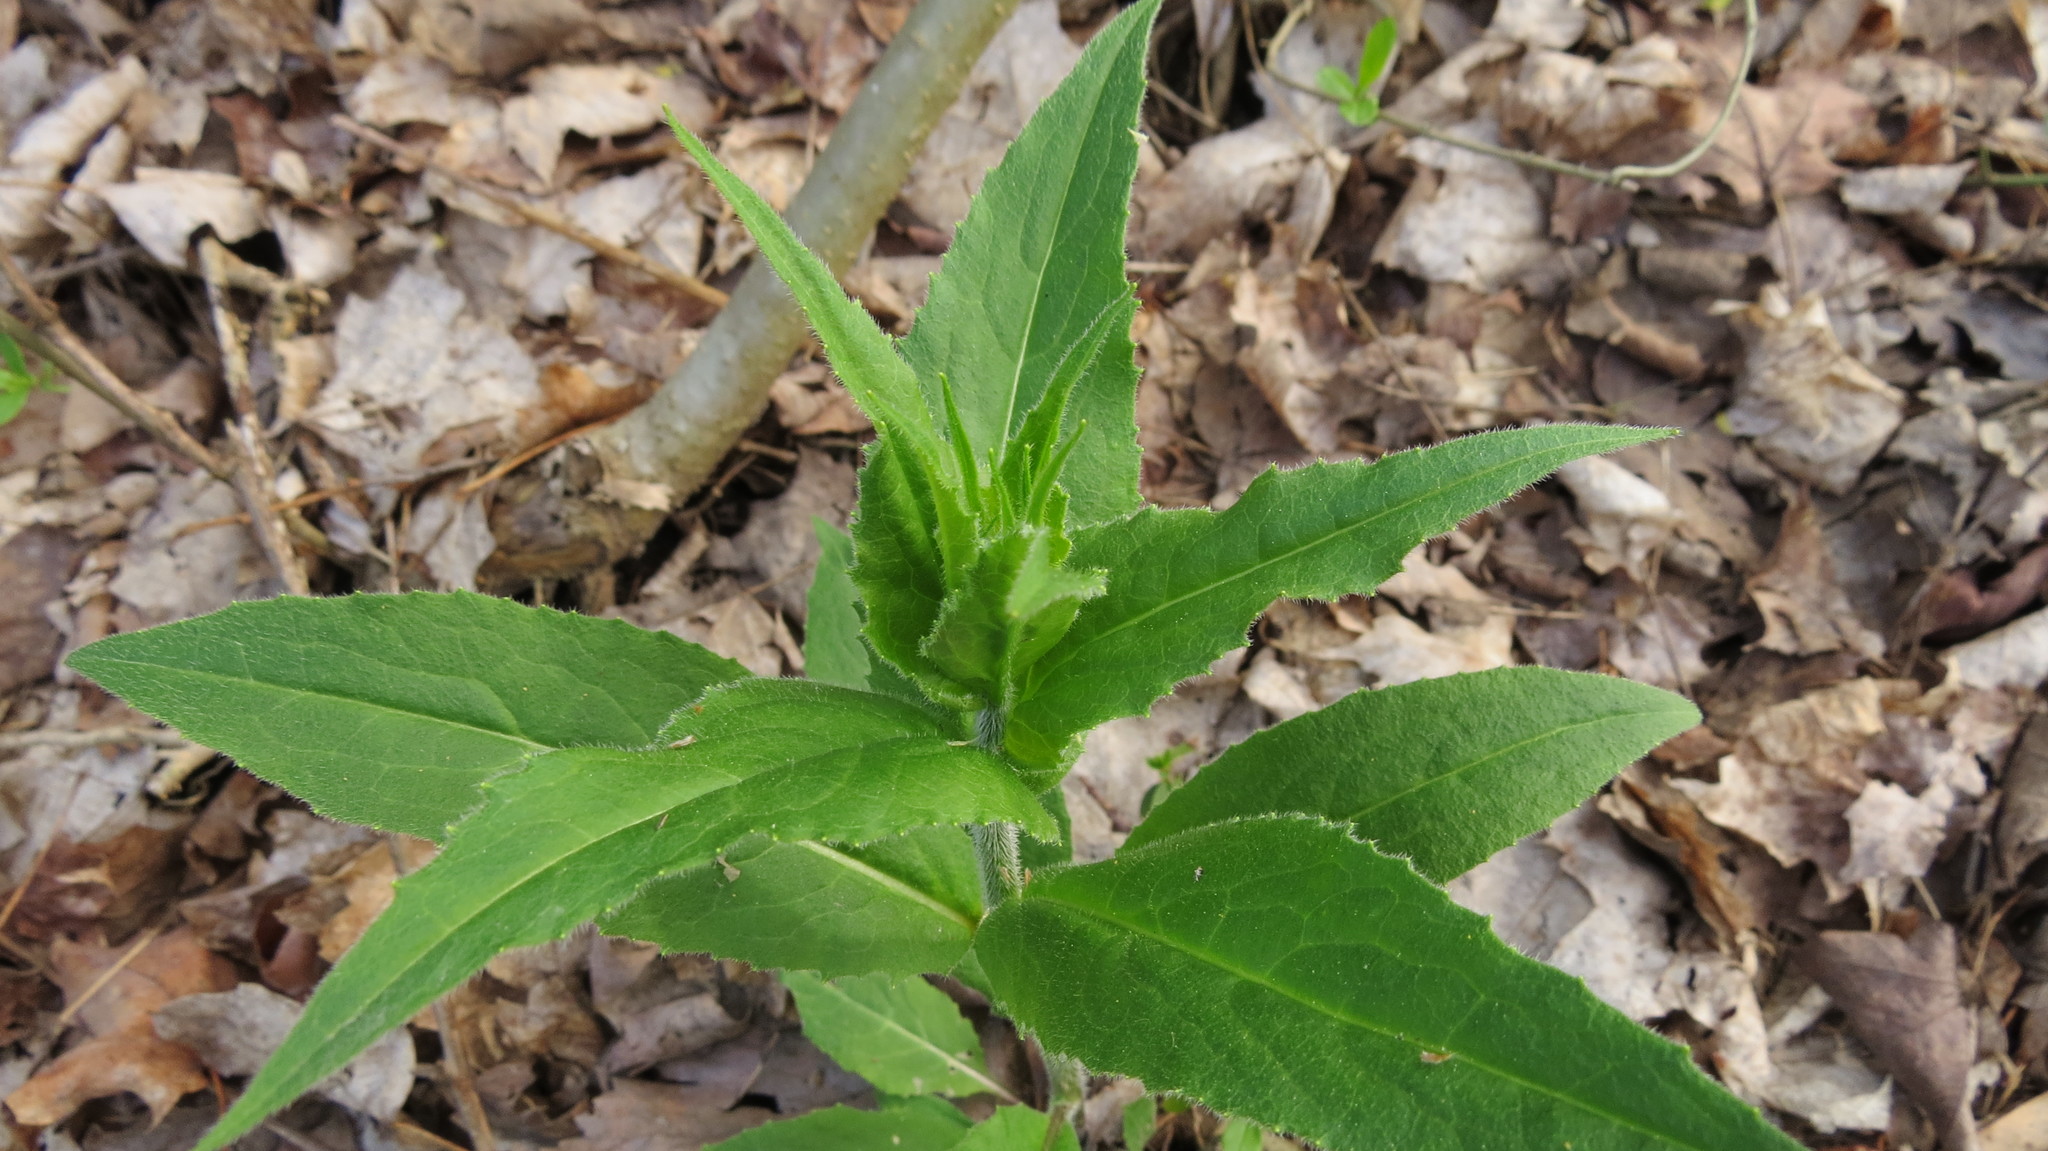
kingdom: Plantae
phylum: Tracheophyta
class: Magnoliopsida
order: Brassicales
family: Brassicaceae
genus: Hesperis
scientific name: Hesperis matronalis
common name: Dame's-violet
